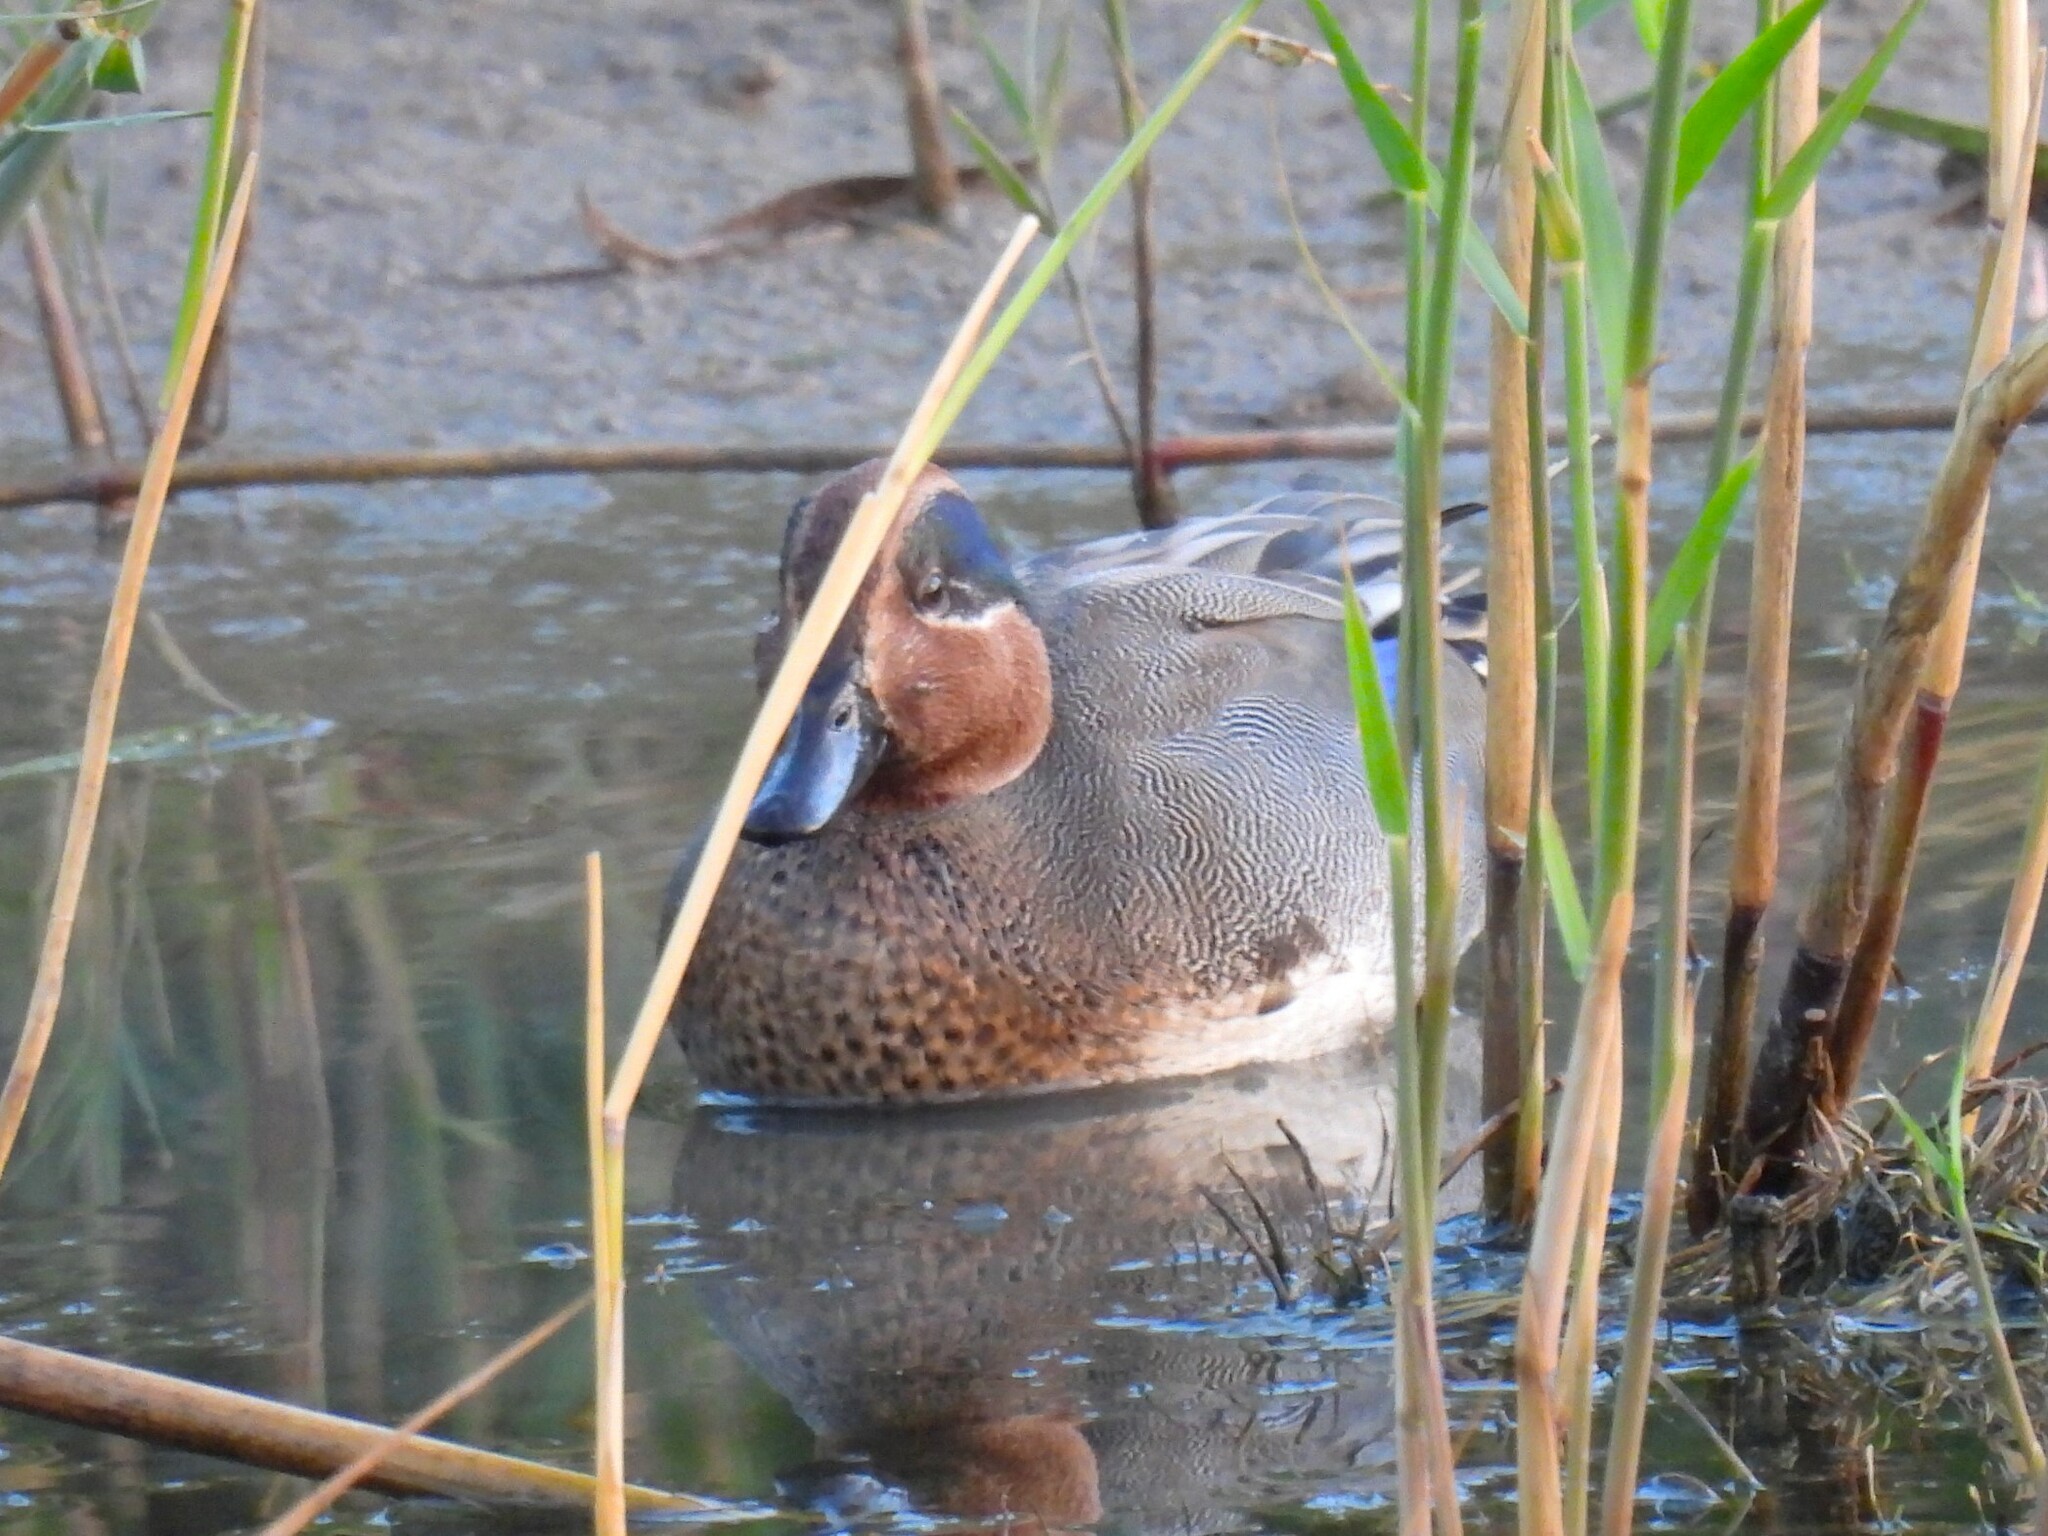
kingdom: Animalia
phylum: Chordata
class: Aves
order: Anseriformes
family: Anatidae
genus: Anas
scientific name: Anas crecca
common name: Eurasian teal
